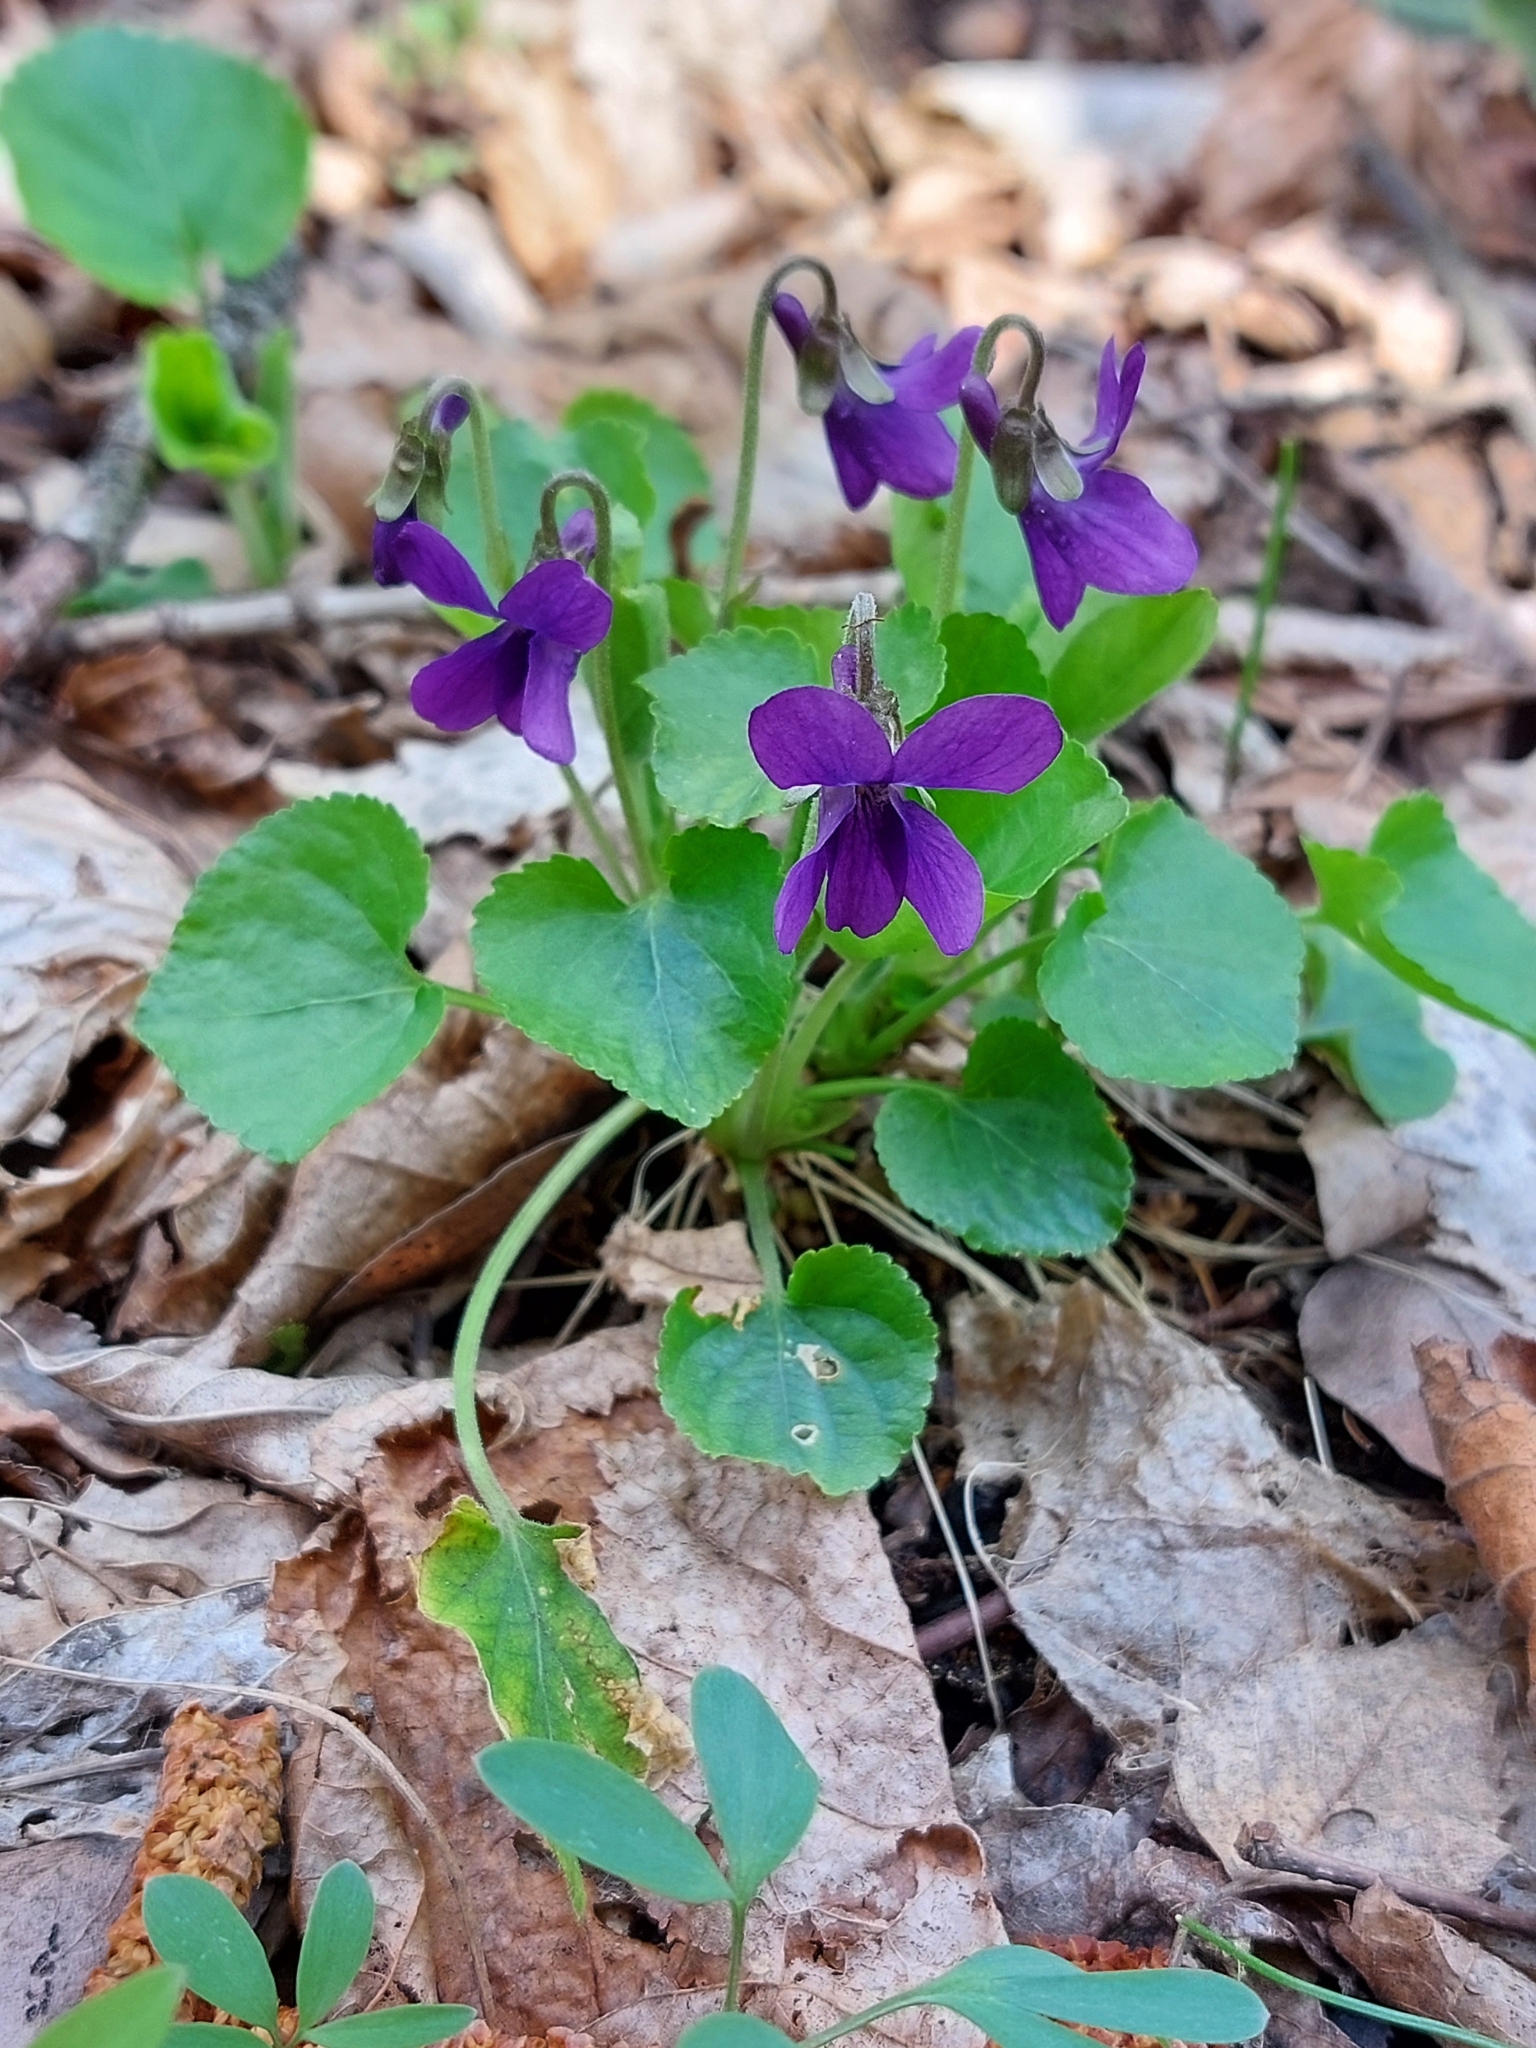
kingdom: Plantae
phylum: Tracheophyta
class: Magnoliopsida
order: Malpighiales
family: Violaceae
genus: Viola
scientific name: Viola odorata
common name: Sweet violet
